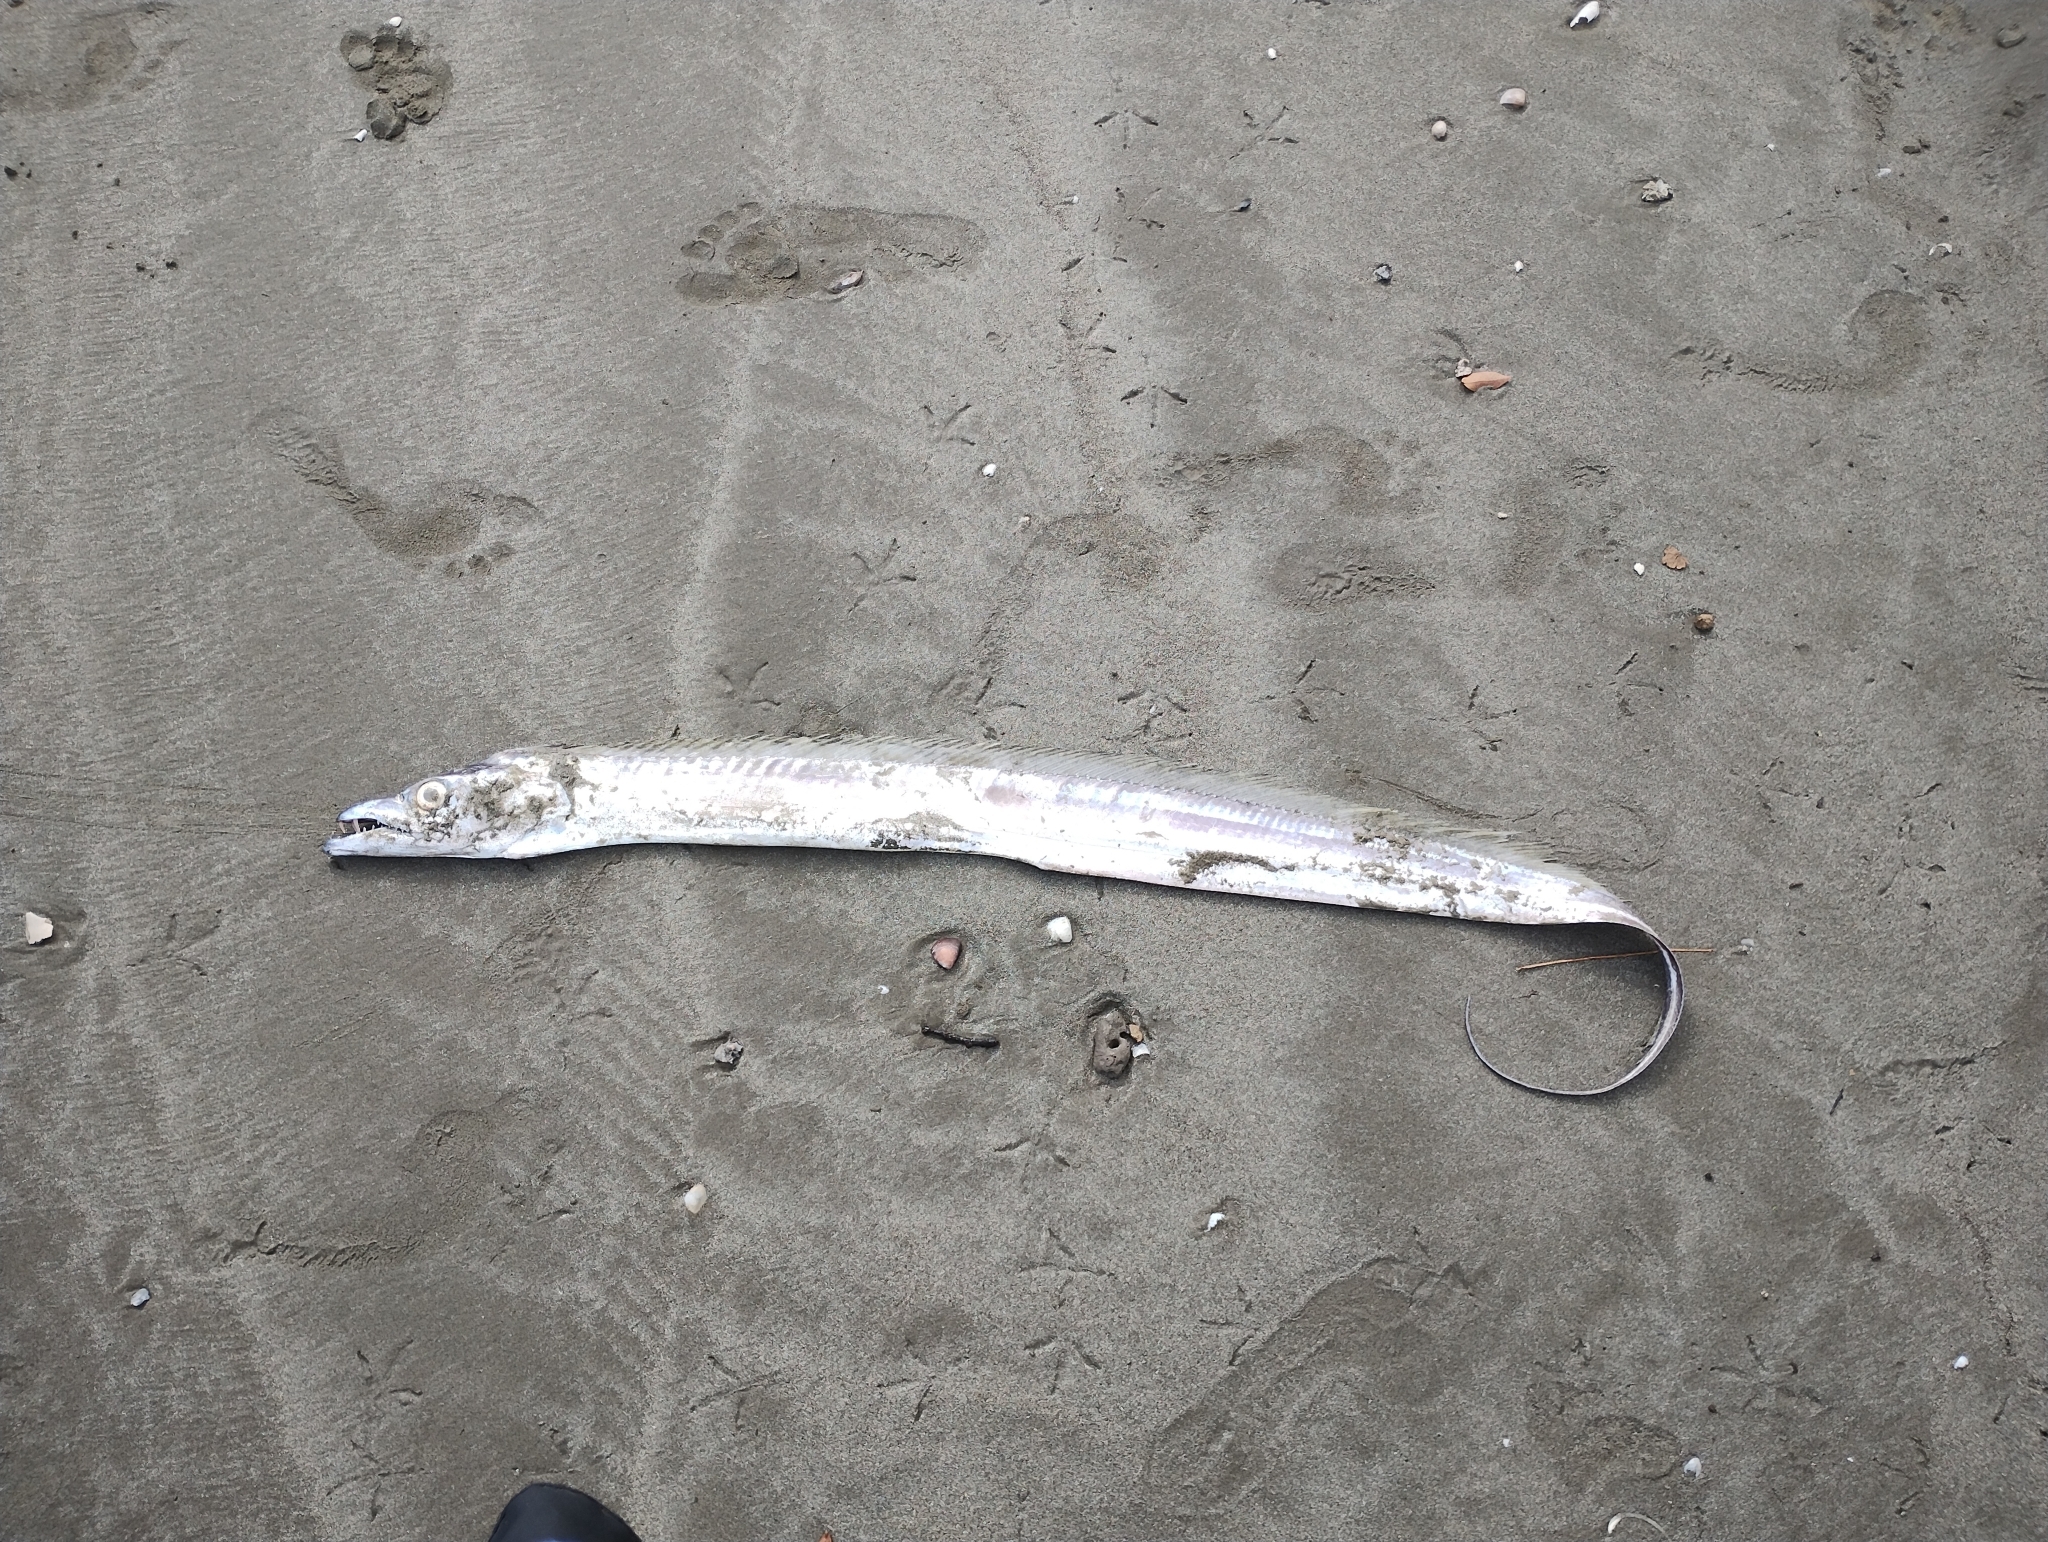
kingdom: Animalia
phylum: Chordata
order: Perciformes
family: Trichiuridae
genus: Trichiurus
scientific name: Trichiurus lepturus
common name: Largehead hairtail
